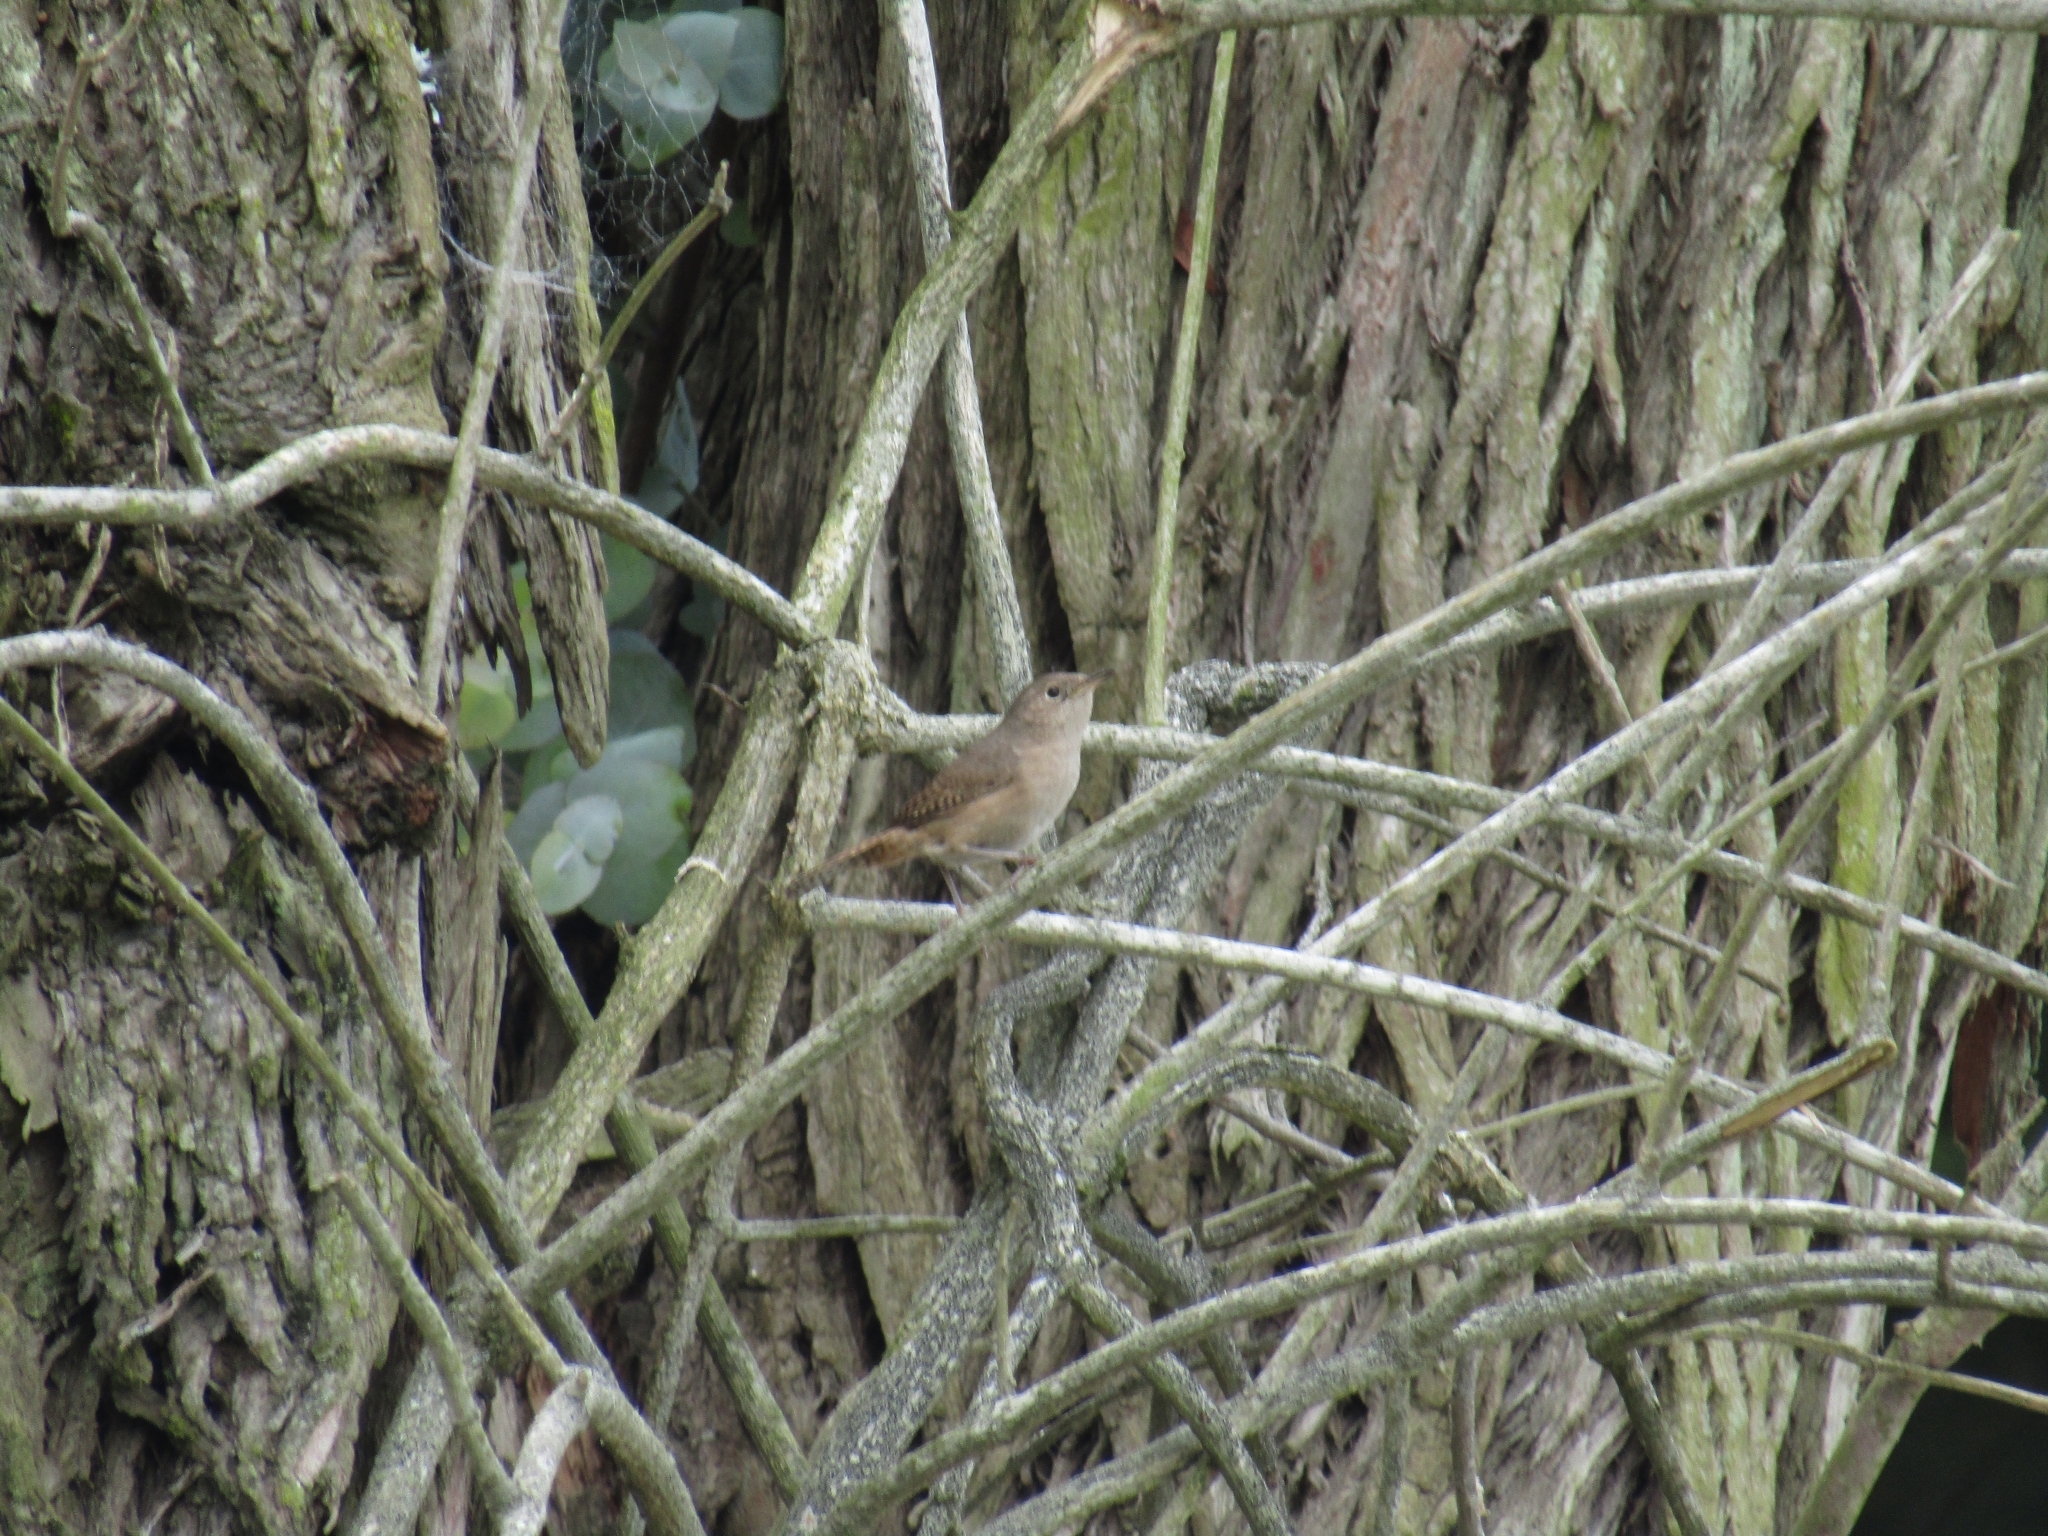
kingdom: Animalia
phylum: Chordata
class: Aves
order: Passeriformes
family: Troglodytidae
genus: Troglodytes
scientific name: Troglodytes aedon
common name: House wren
